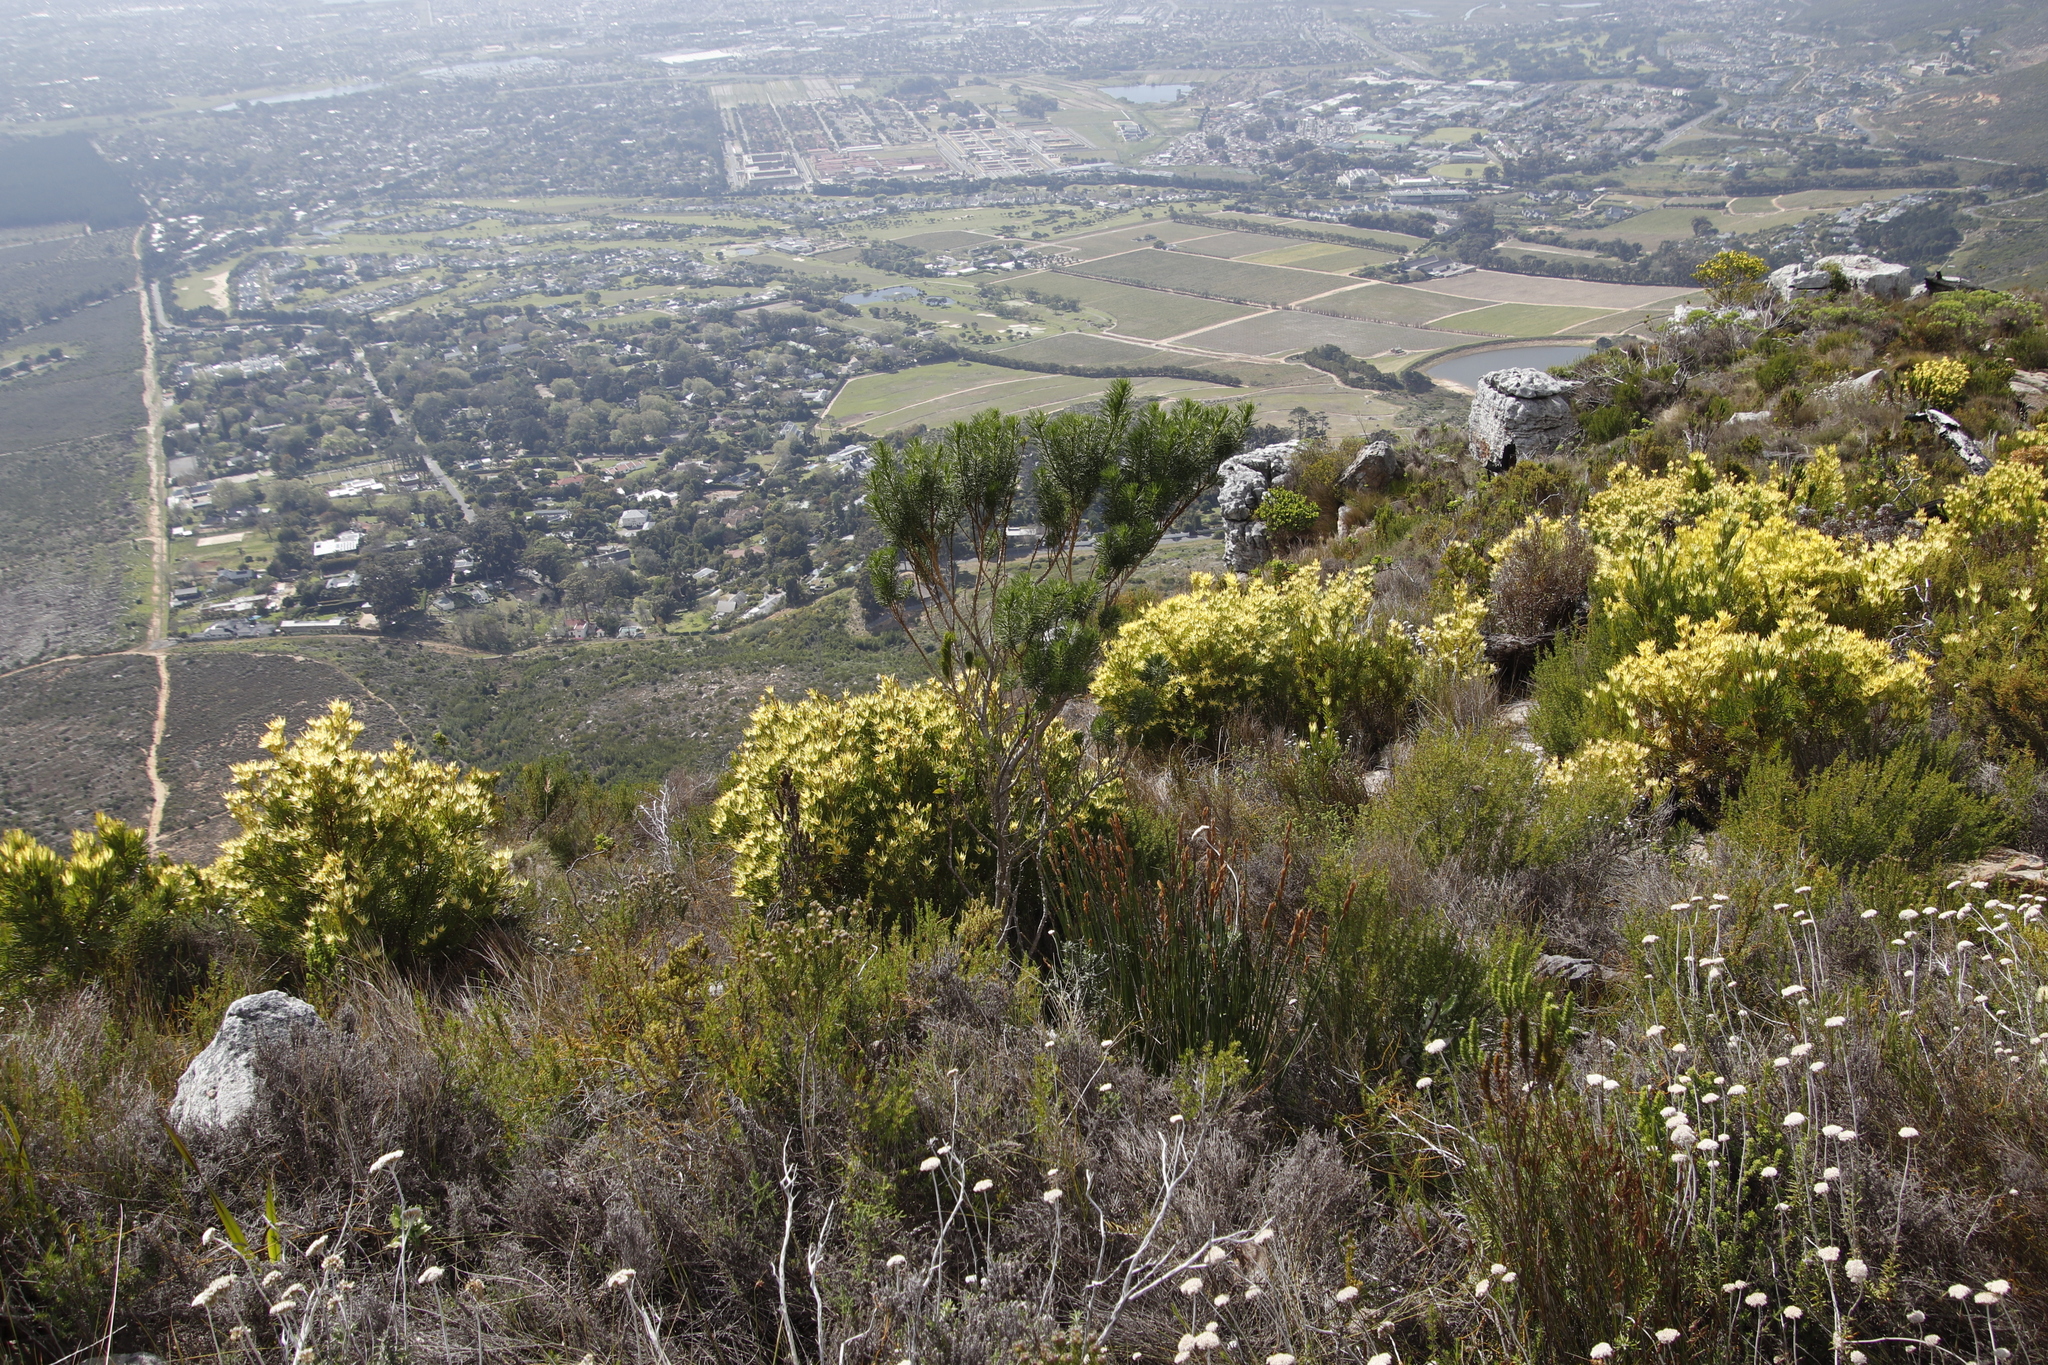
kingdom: Plantae
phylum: Tracheophyta
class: Magnoliopsida
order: Proteales
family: Proteaceae
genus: Leucadendron
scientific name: Leucadendron xanthoconus
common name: Sickle-leaf conebush
